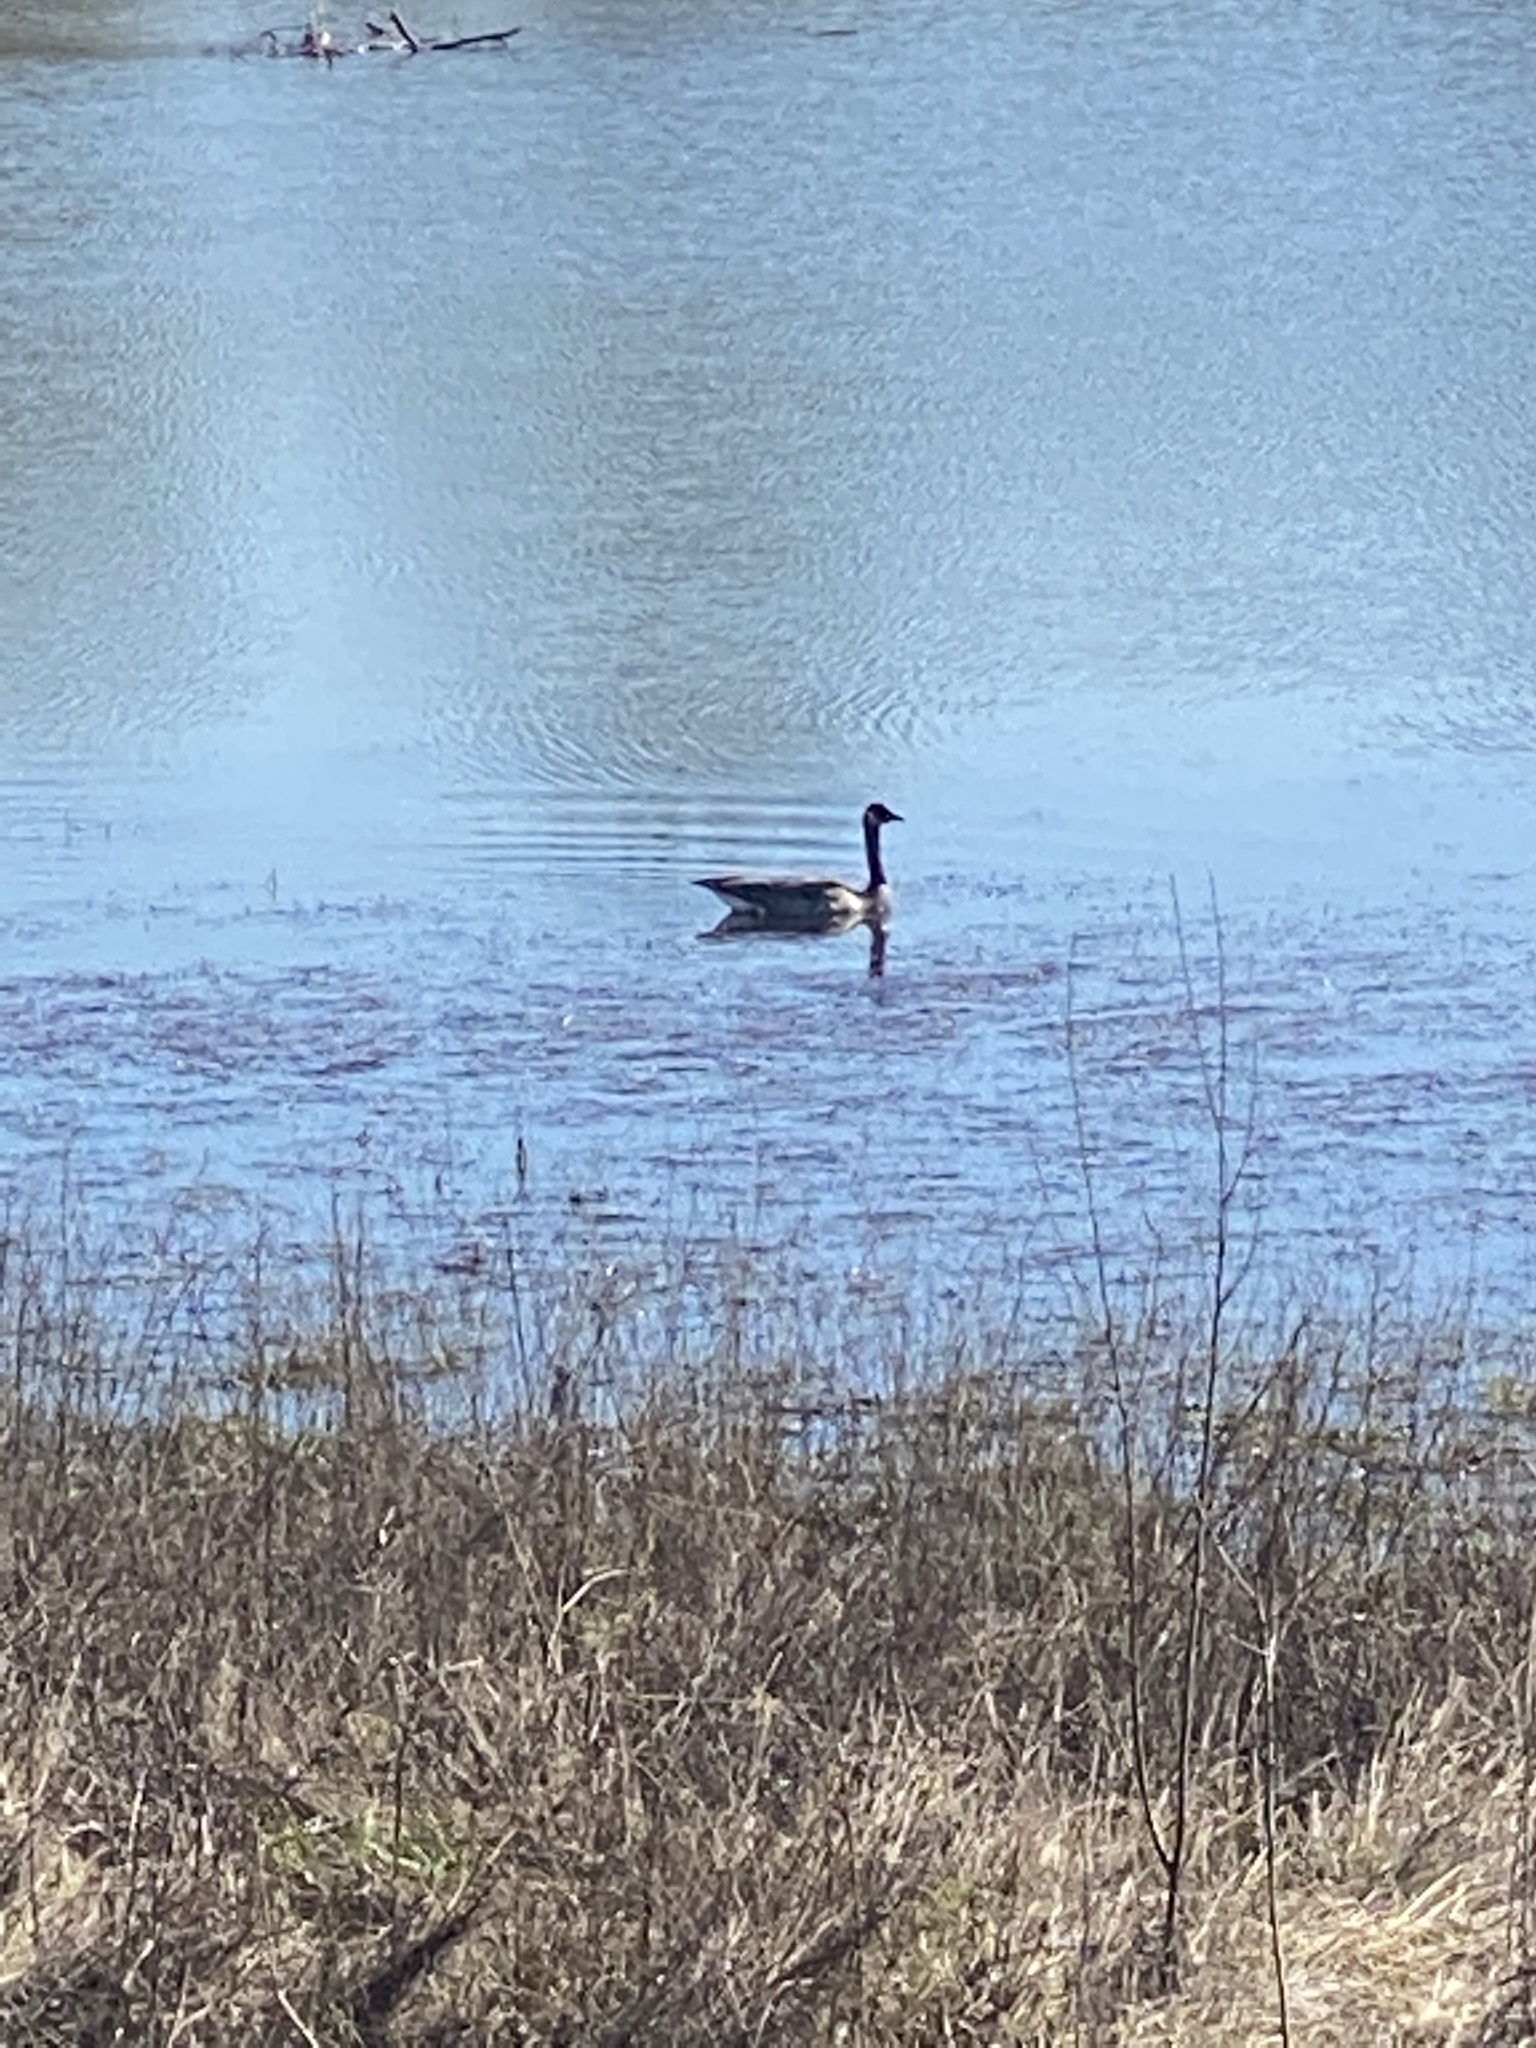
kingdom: Animalia
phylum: Chordata
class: Aves
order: Anseriformes
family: Anatidae
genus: Branta
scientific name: Branta canadensis
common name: Canada goose
